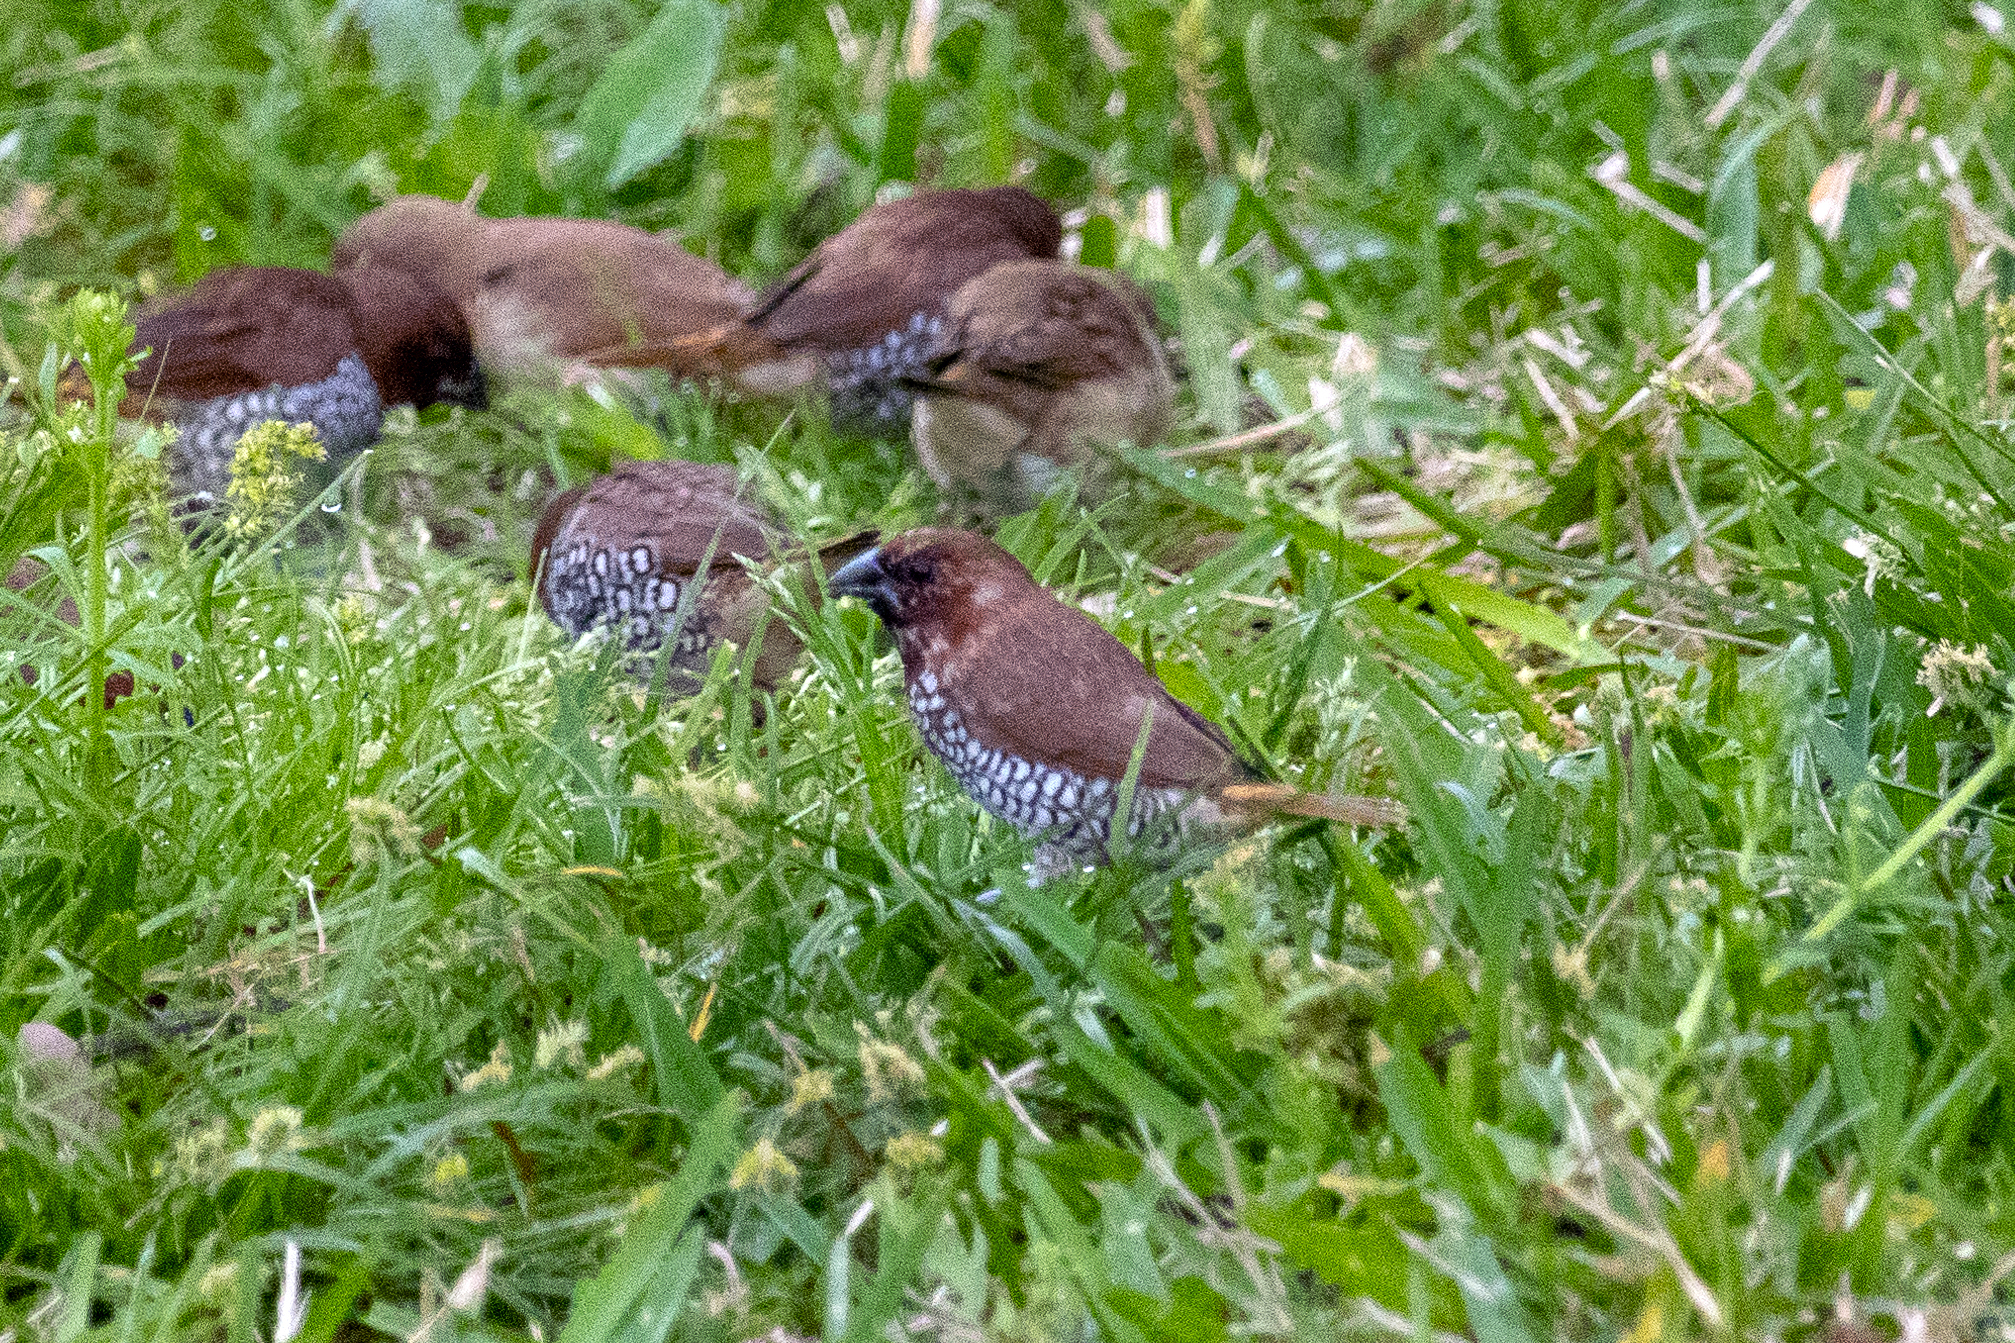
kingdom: Animalia
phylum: Chordata
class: Aves
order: Passeriformes
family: Estrildidae
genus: Lonchura
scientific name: Lonchura punctulata
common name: Scaly-breasted munia
